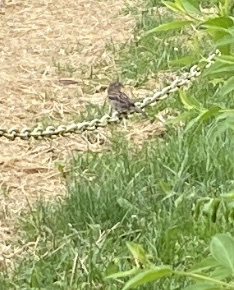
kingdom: Animalia
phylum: Chordata
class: Aves
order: Passeriformes
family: Passeridae
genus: Passer
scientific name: Passer domesticus
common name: House sparrow
